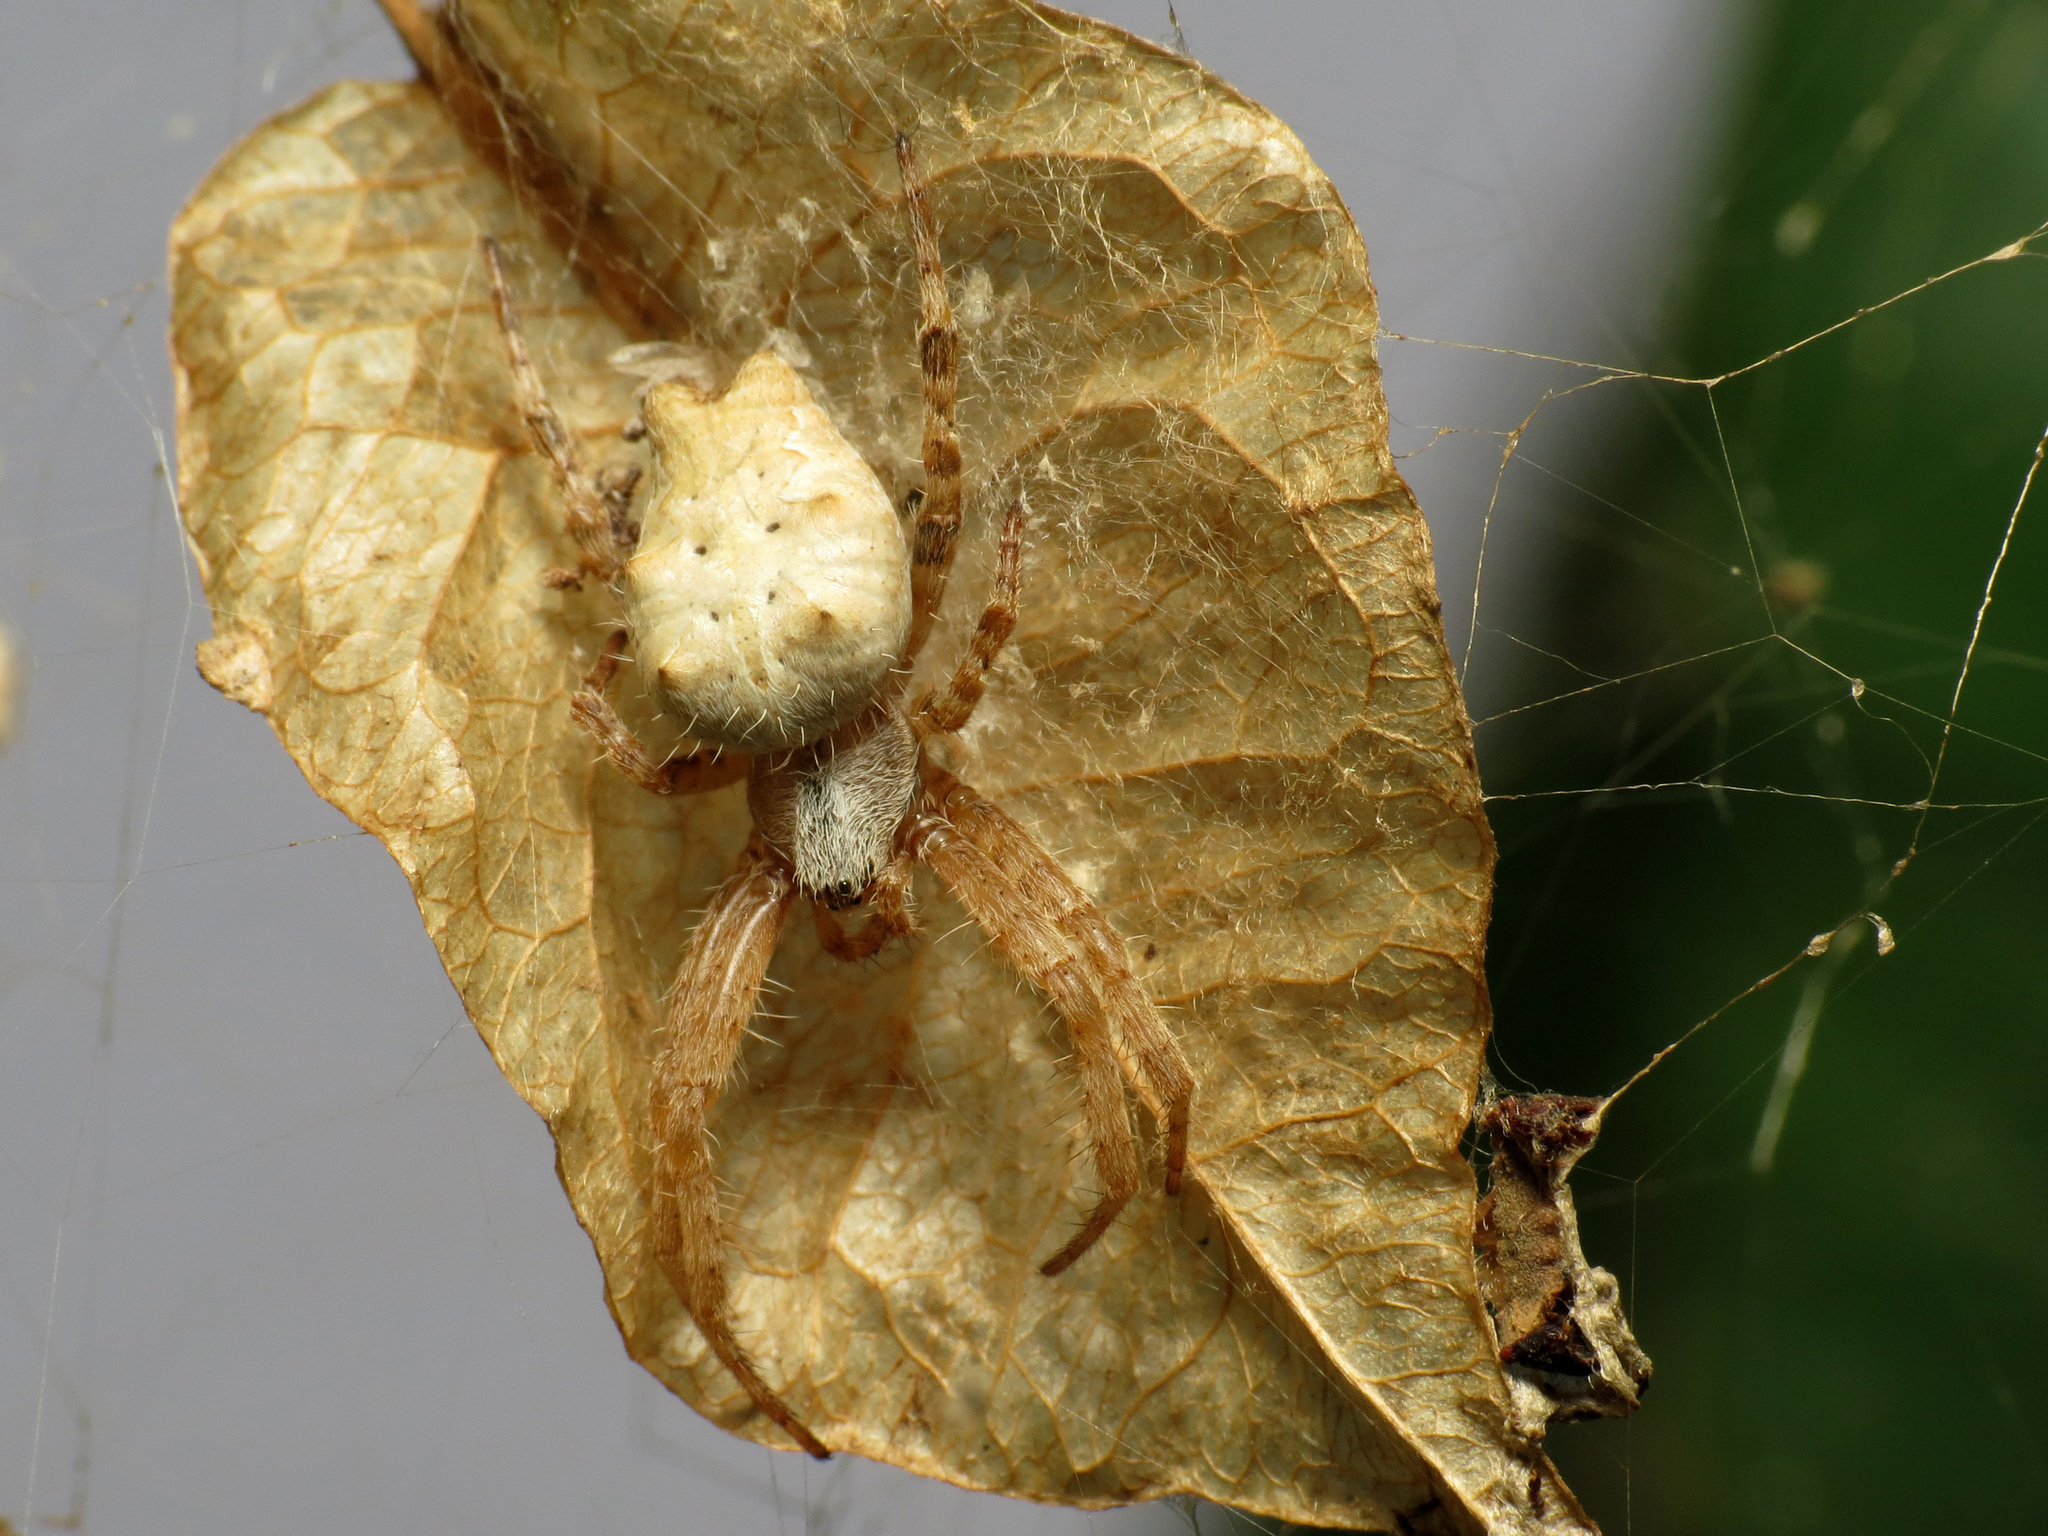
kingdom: Animalia
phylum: Arthropoda
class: Arachnida
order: Araneae
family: Araneidae
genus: Cyrtophora
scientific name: Cyrtophora citricola
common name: Orb weavers
